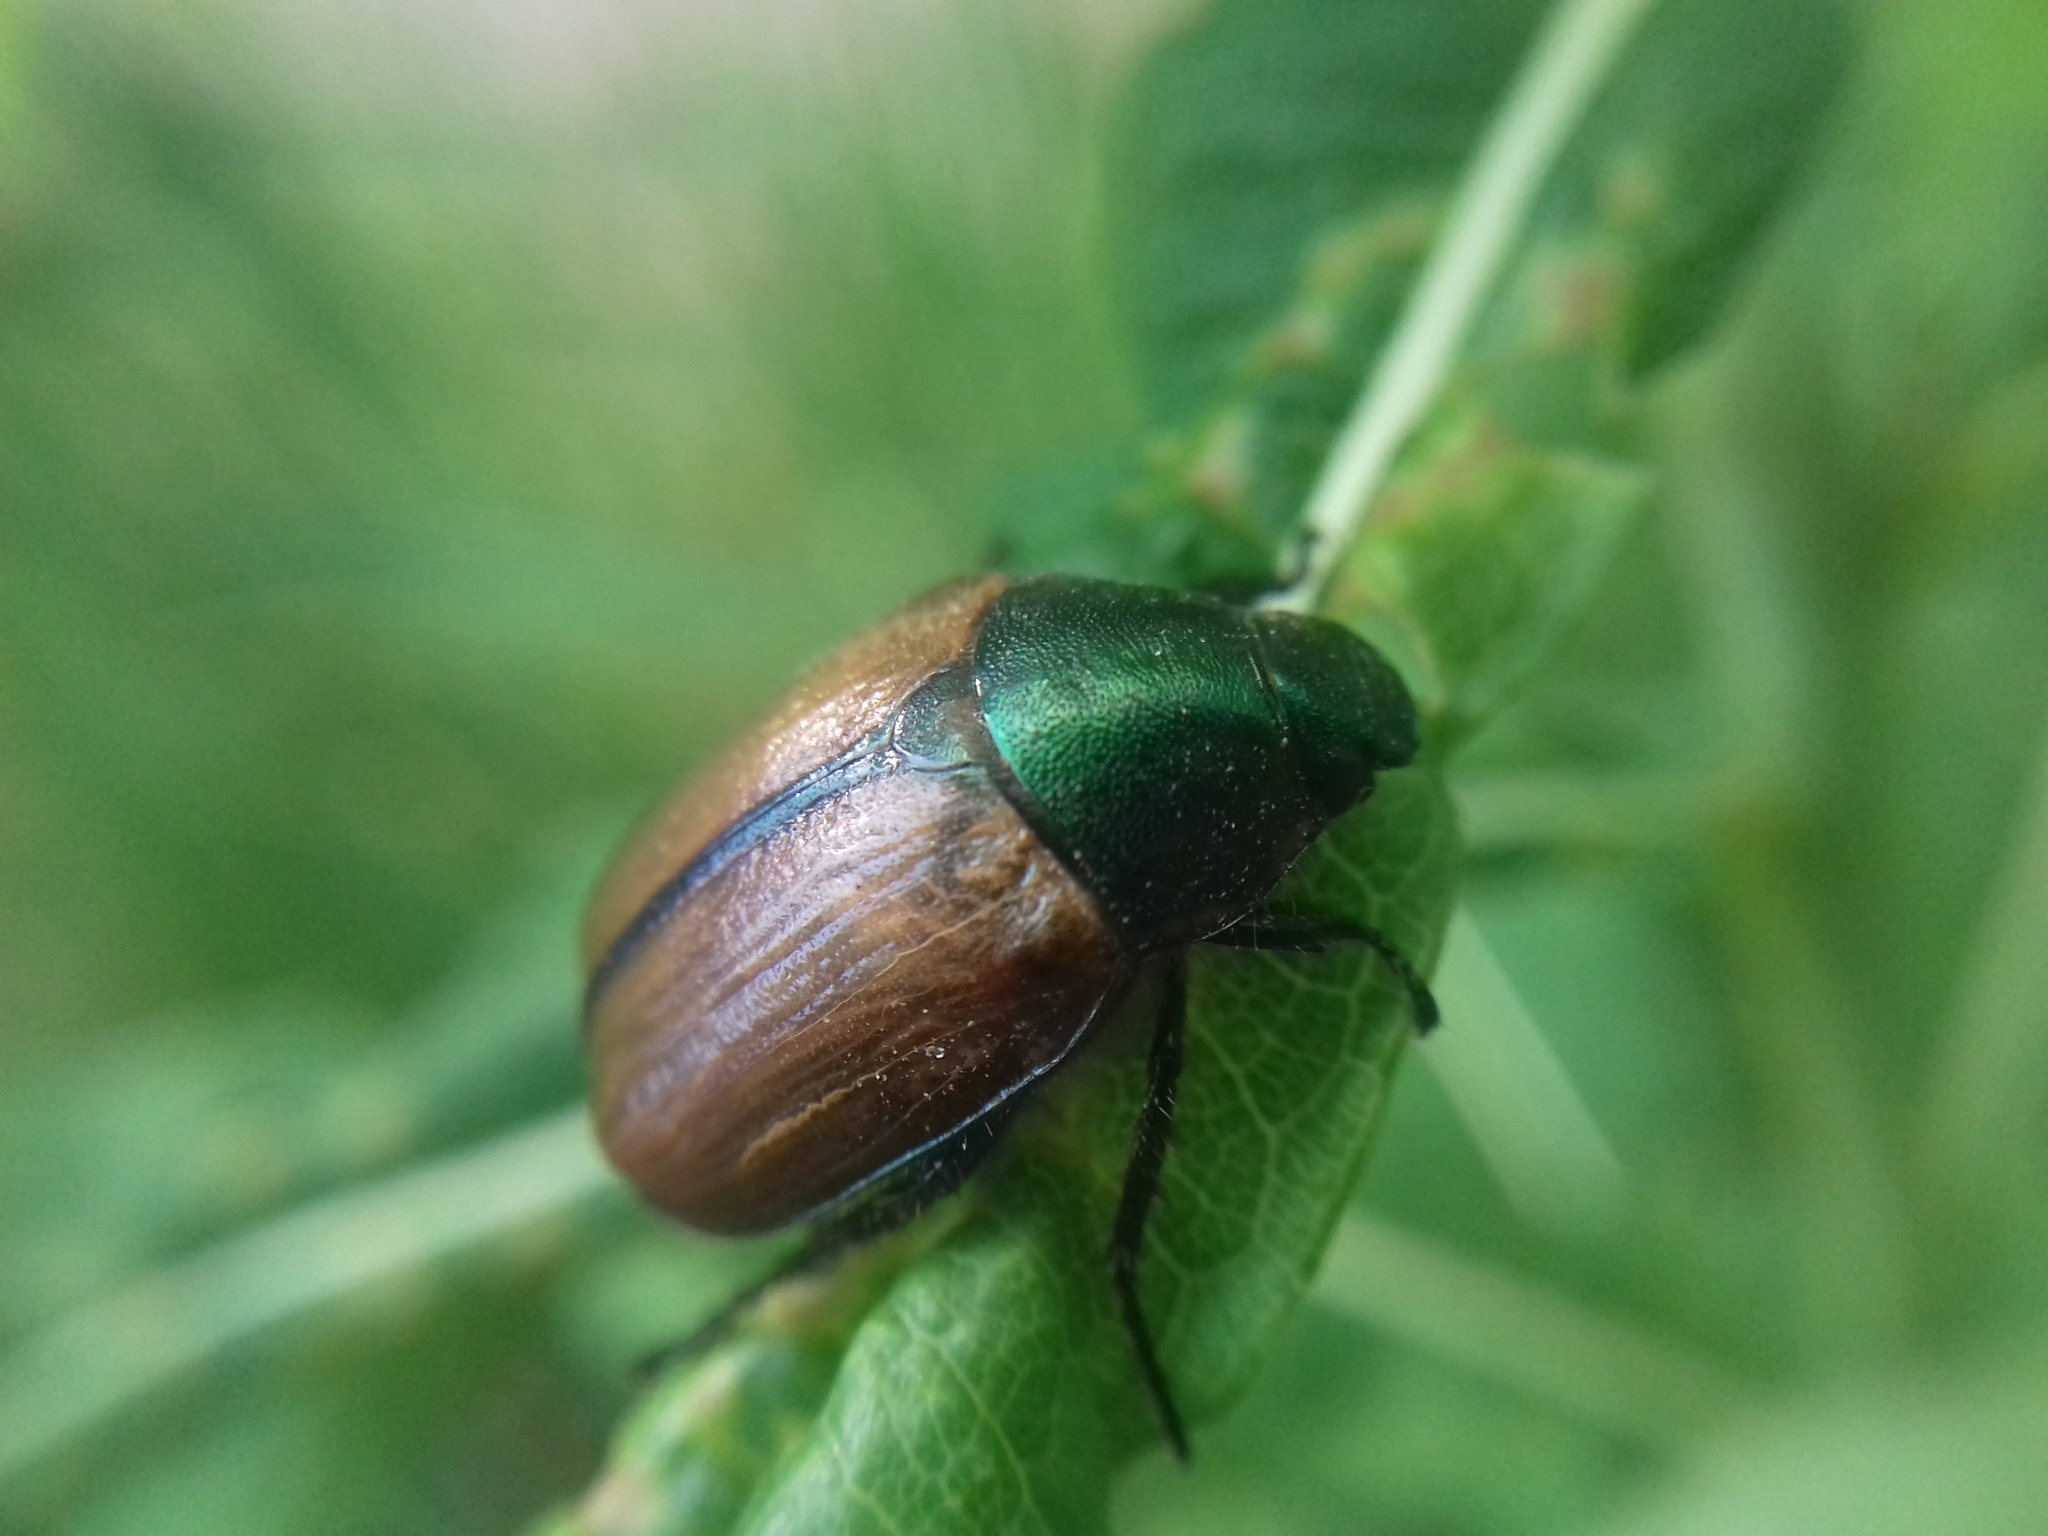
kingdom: Animalia
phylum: Arthropoda
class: Insecta
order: Coleoptera
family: Scarabaeidae
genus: Anomala
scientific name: Anomala dubia
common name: Dune chafer
